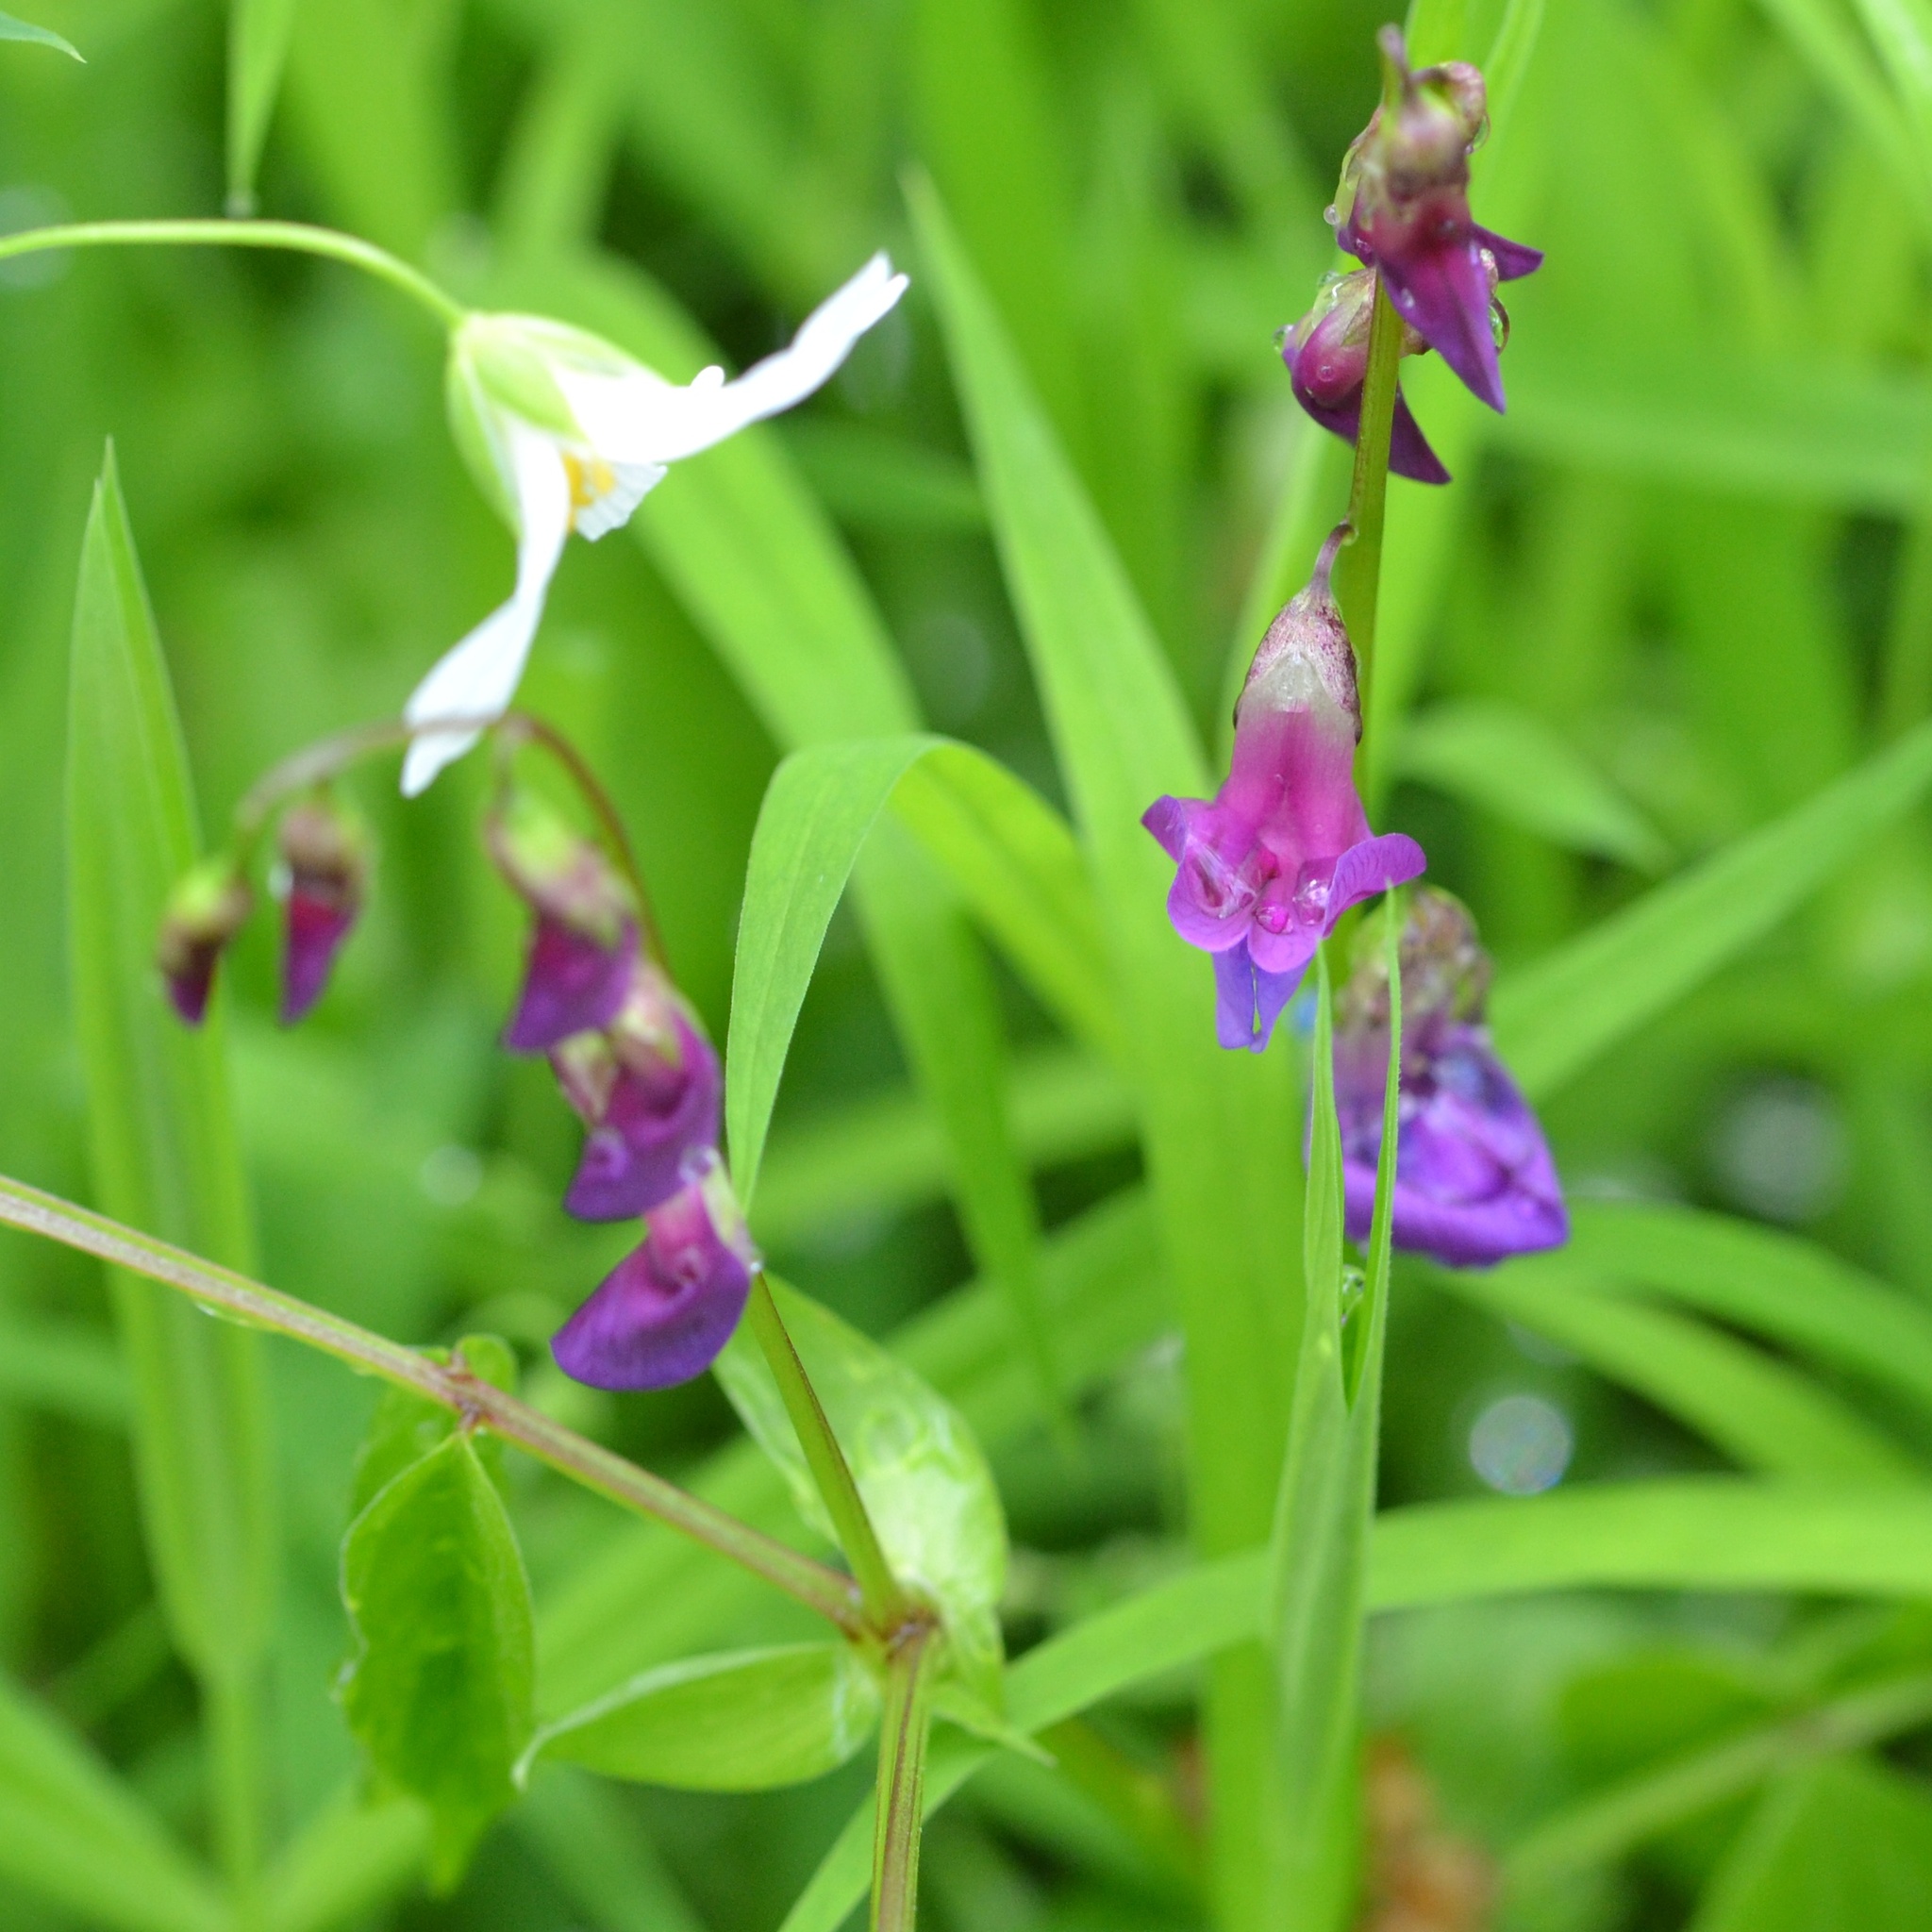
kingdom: Plantae
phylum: Tracheophyta
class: Magnoliopsida
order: Fabales
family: Fabaceae
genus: Lathyrus
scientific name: Lathyrus vernus
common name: Spring pea
